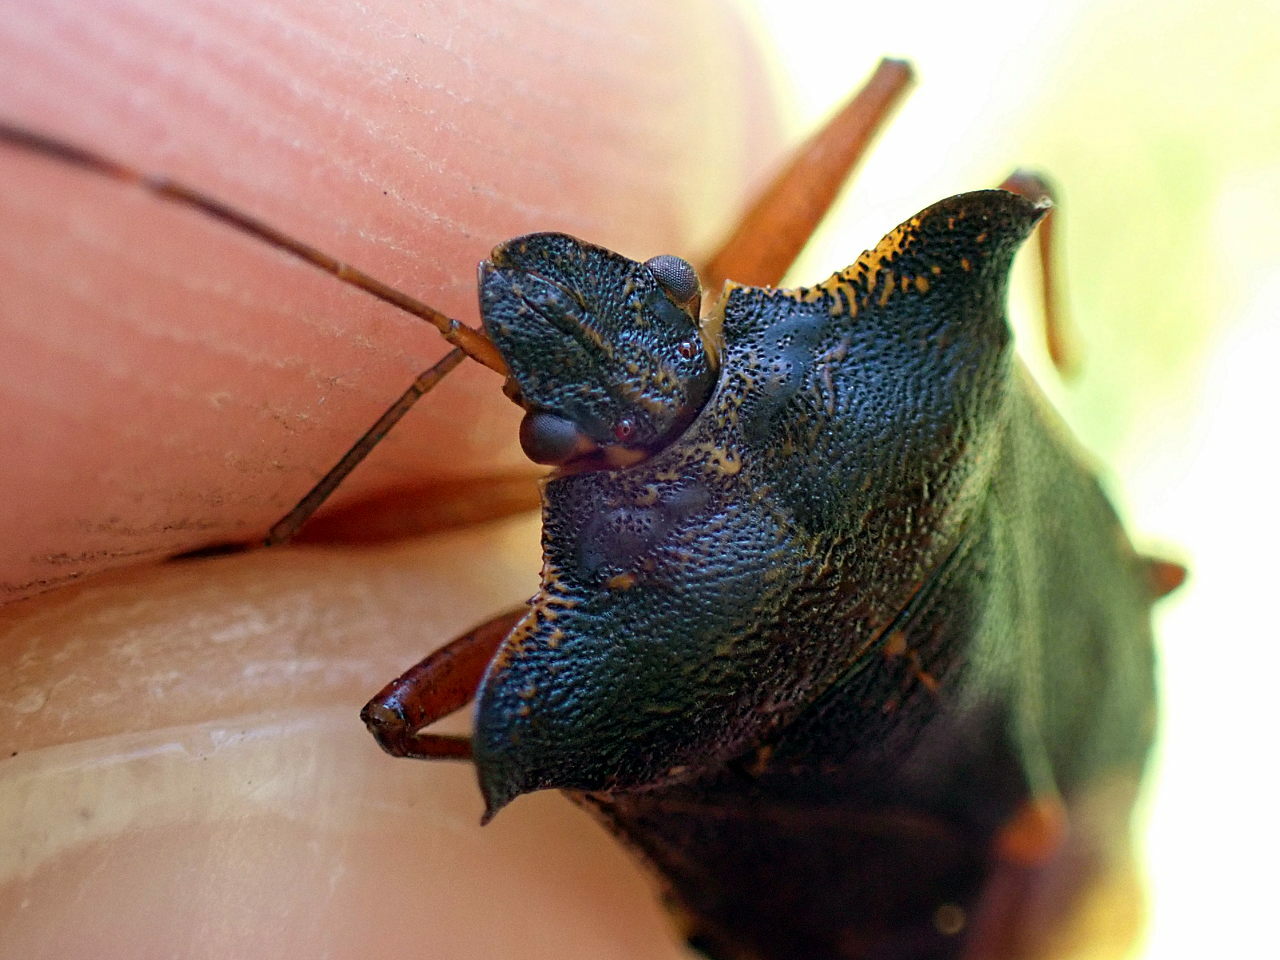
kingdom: Animalia
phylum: Arthropoda
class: Insecta
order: Hemiptera
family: Pentatomidae
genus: Pentatoma
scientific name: Pentatoma rufipes
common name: Forest bug
